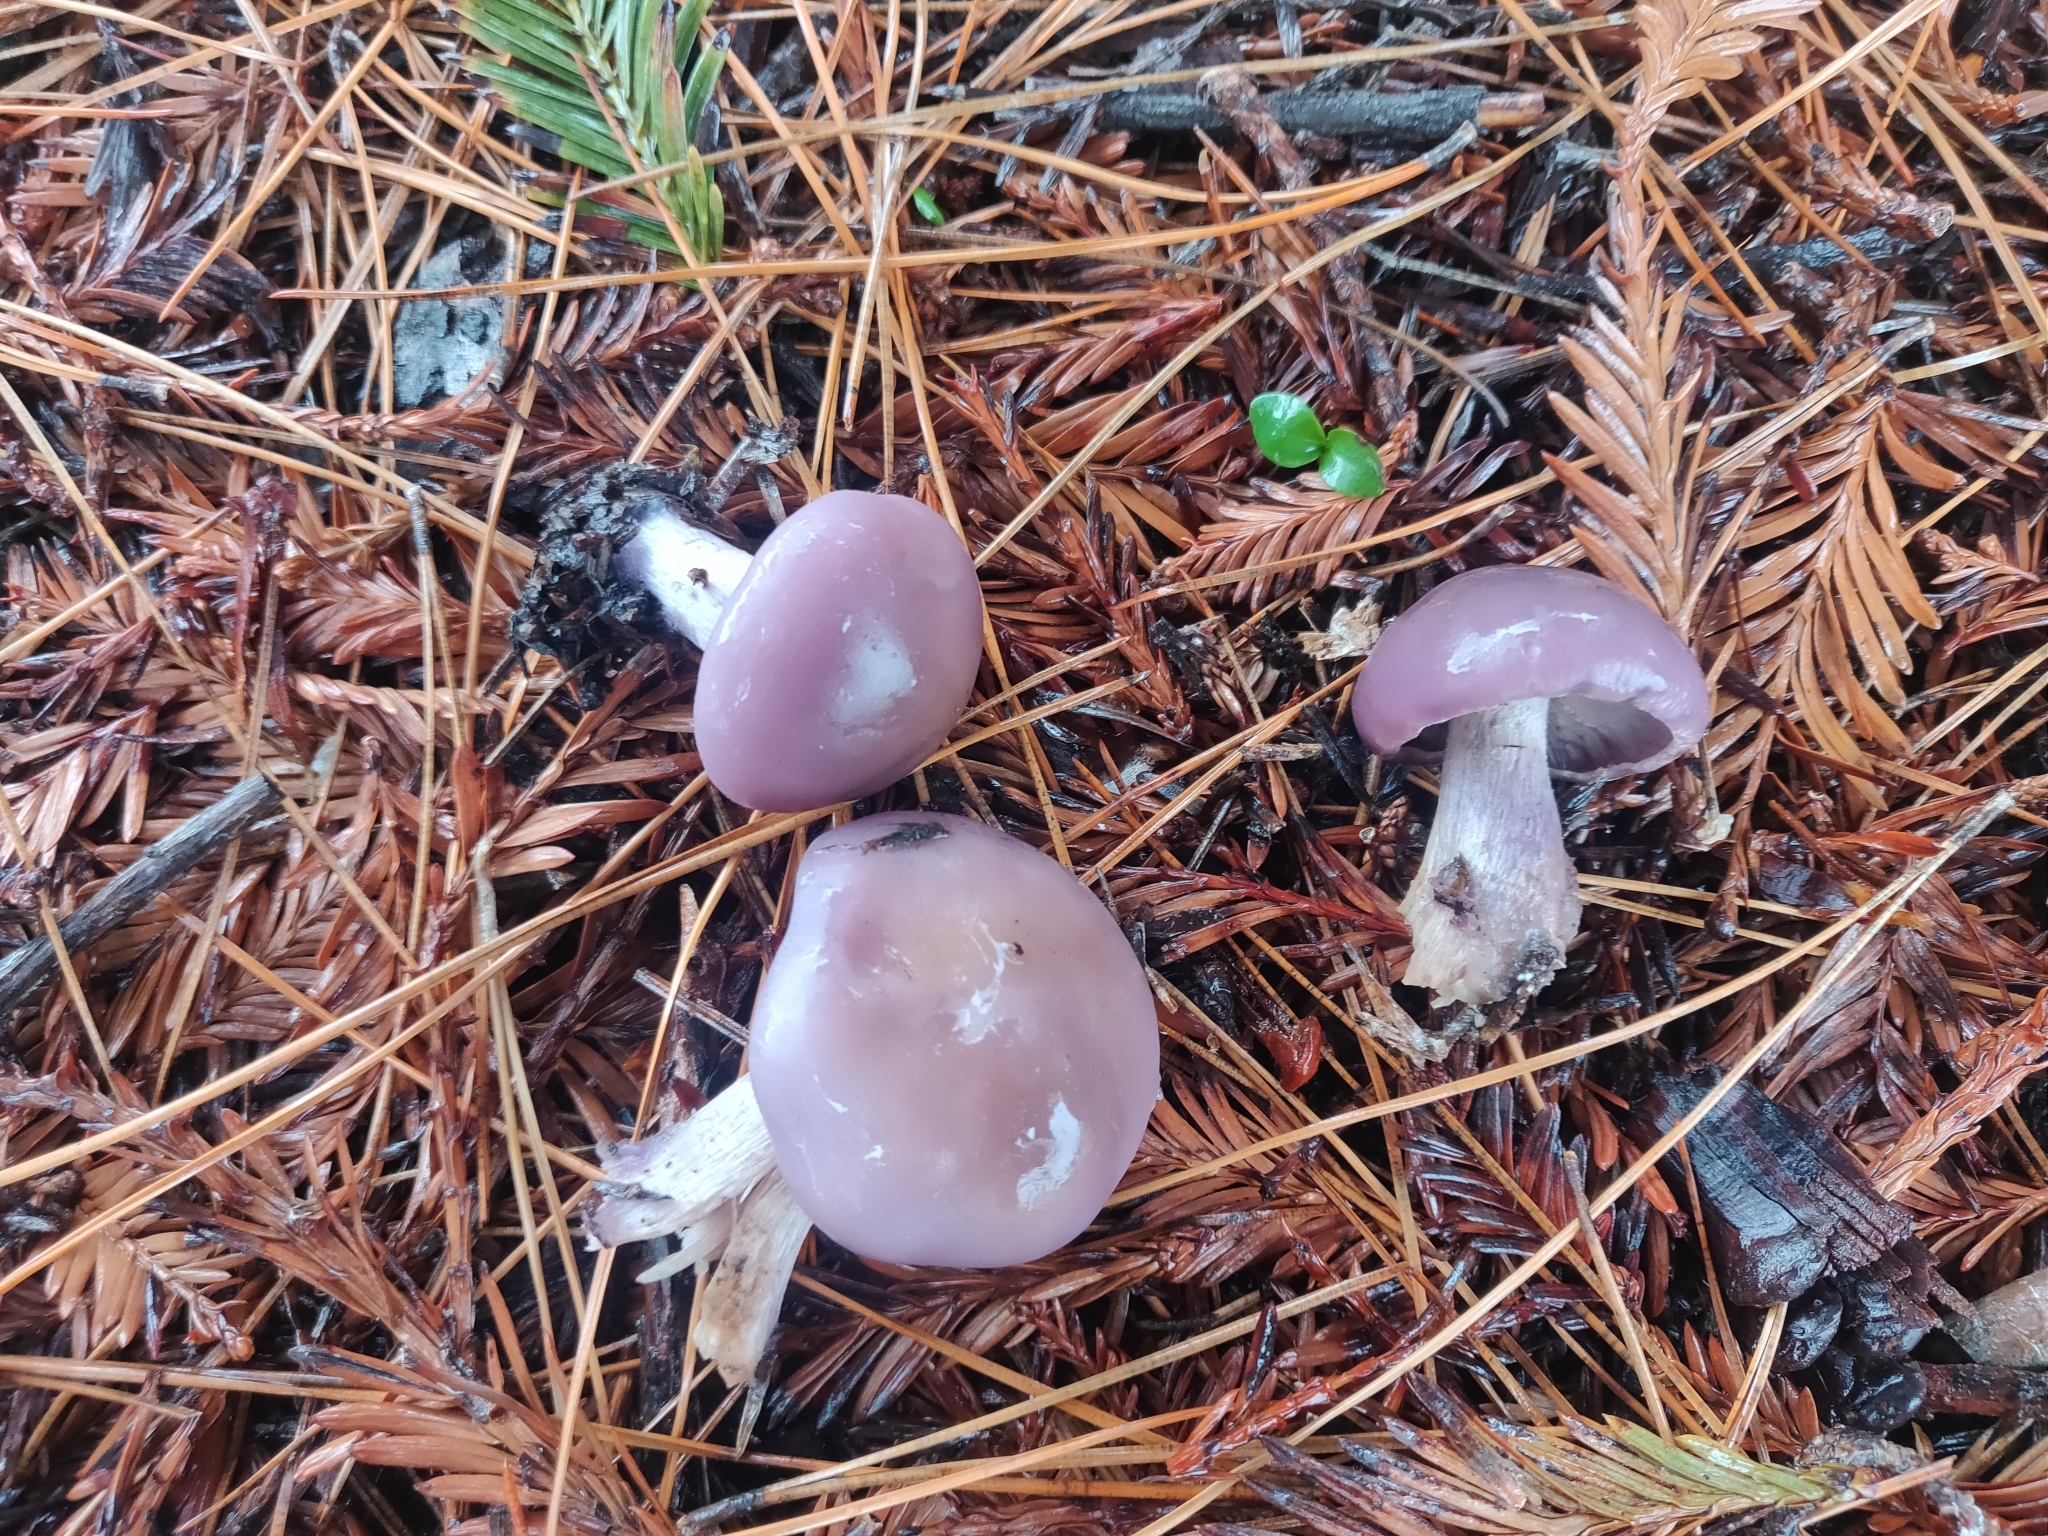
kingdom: Fungi
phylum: Basidiomycota
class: Agaricomycetes
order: Agaricales
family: Tricholomataceae
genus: Collybia
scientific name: Collybia
